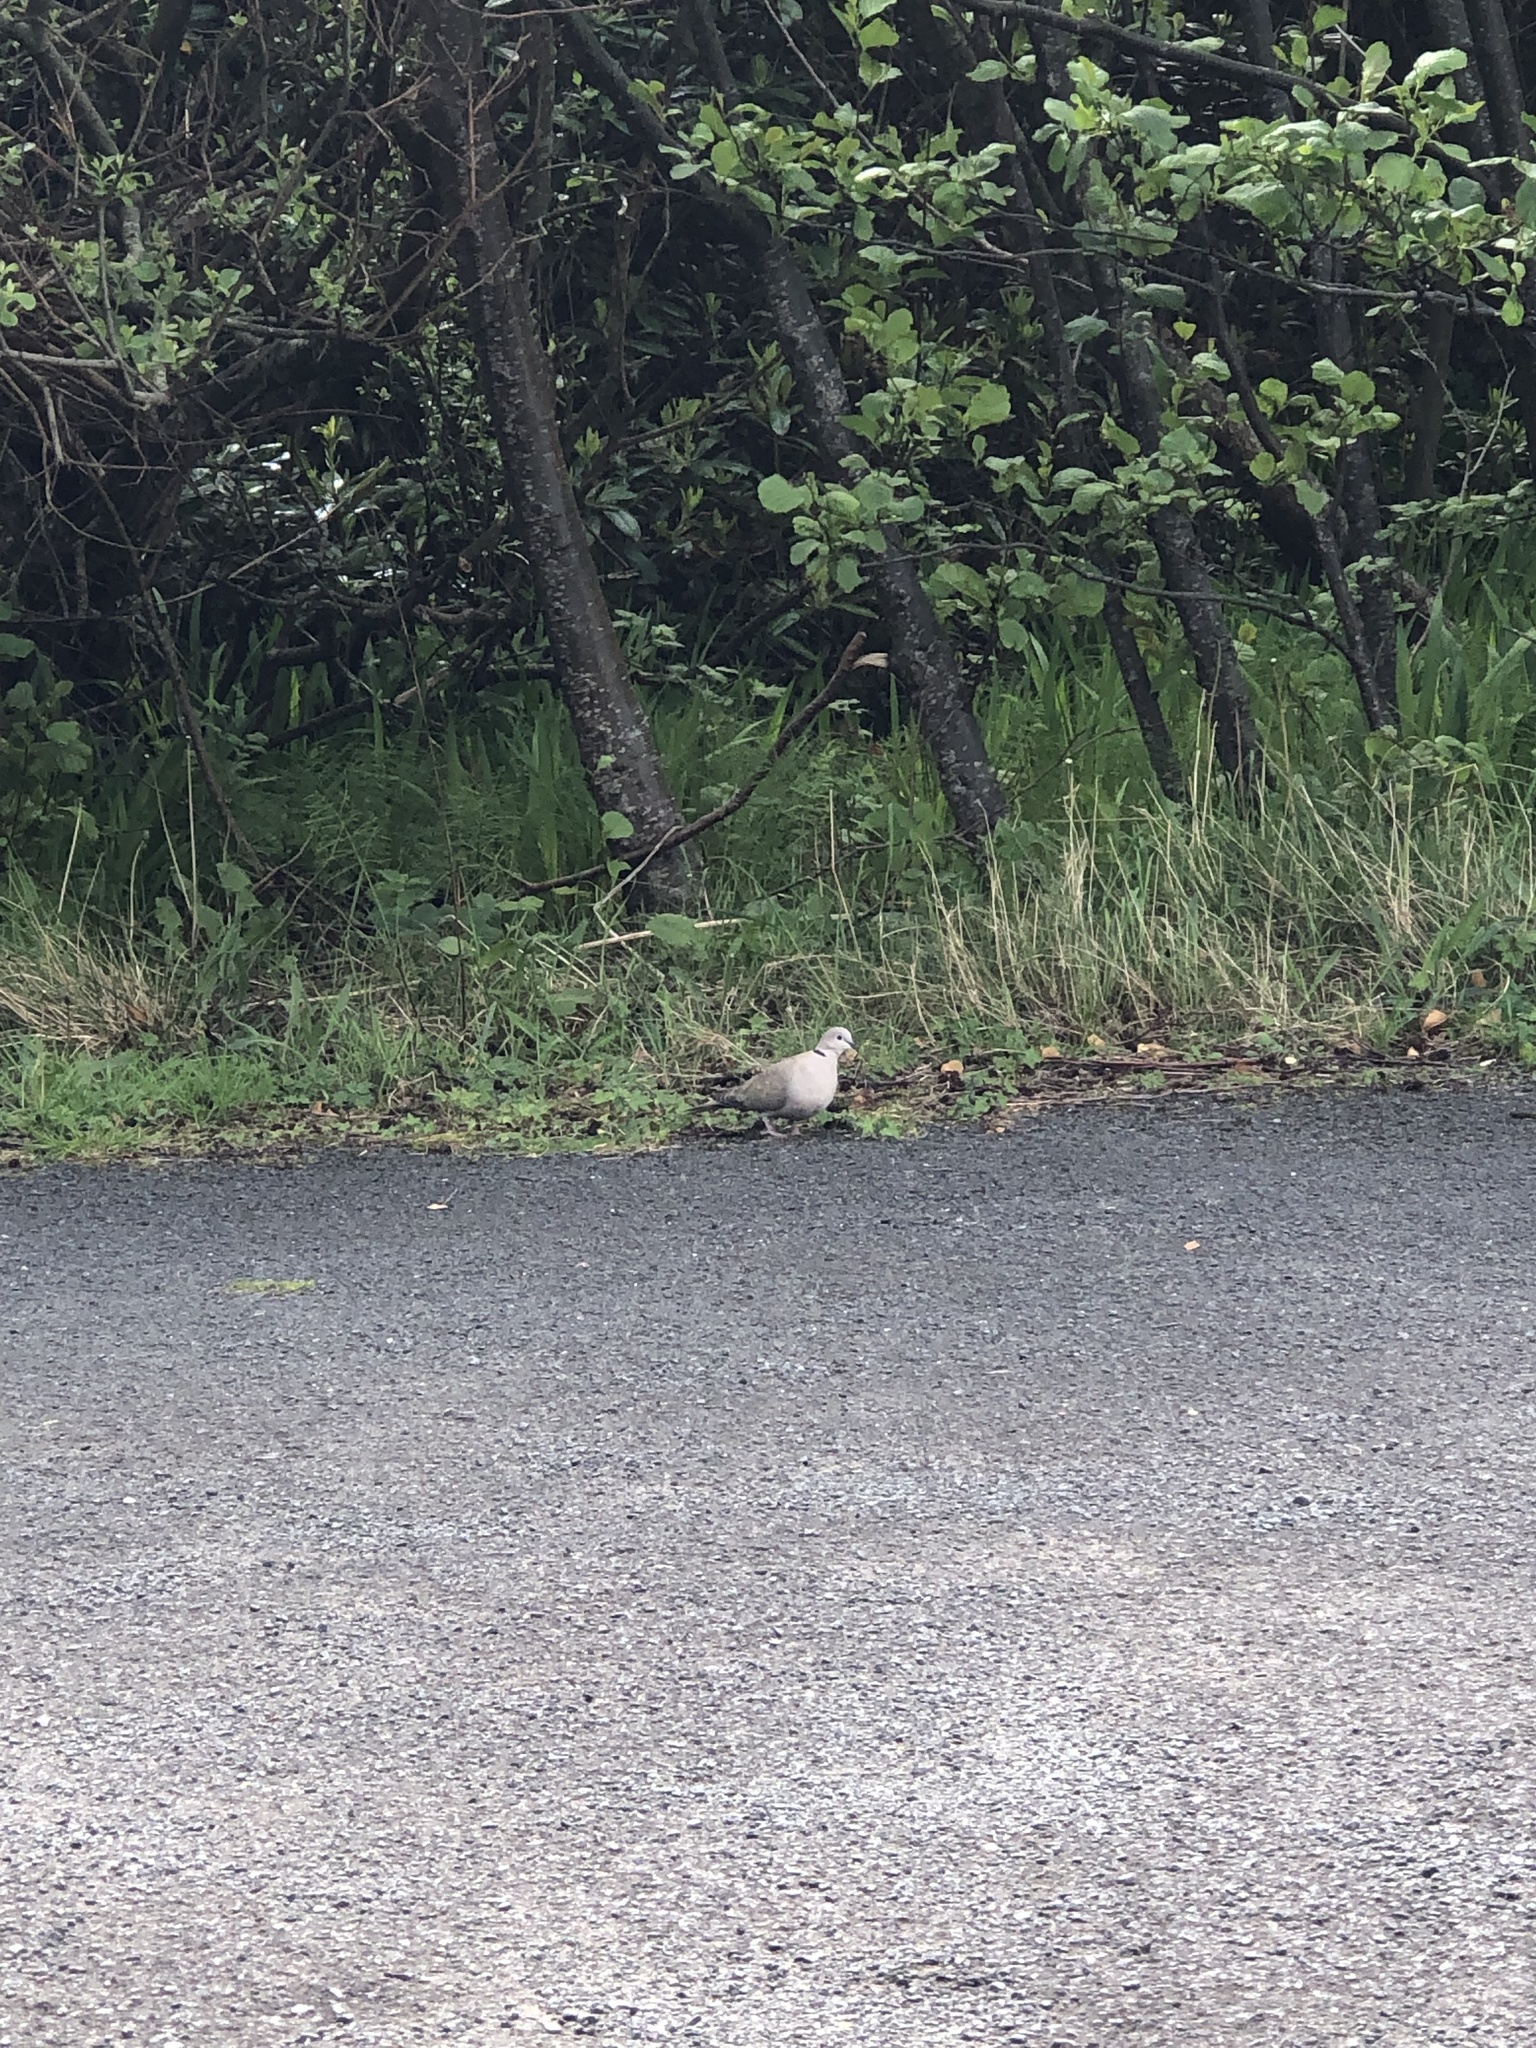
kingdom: Animalia
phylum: Chordata
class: Aves
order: Columbiformes
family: Columbidae
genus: Streptopelia
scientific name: Streptopelia decaocto
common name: Eurasian collared dove
